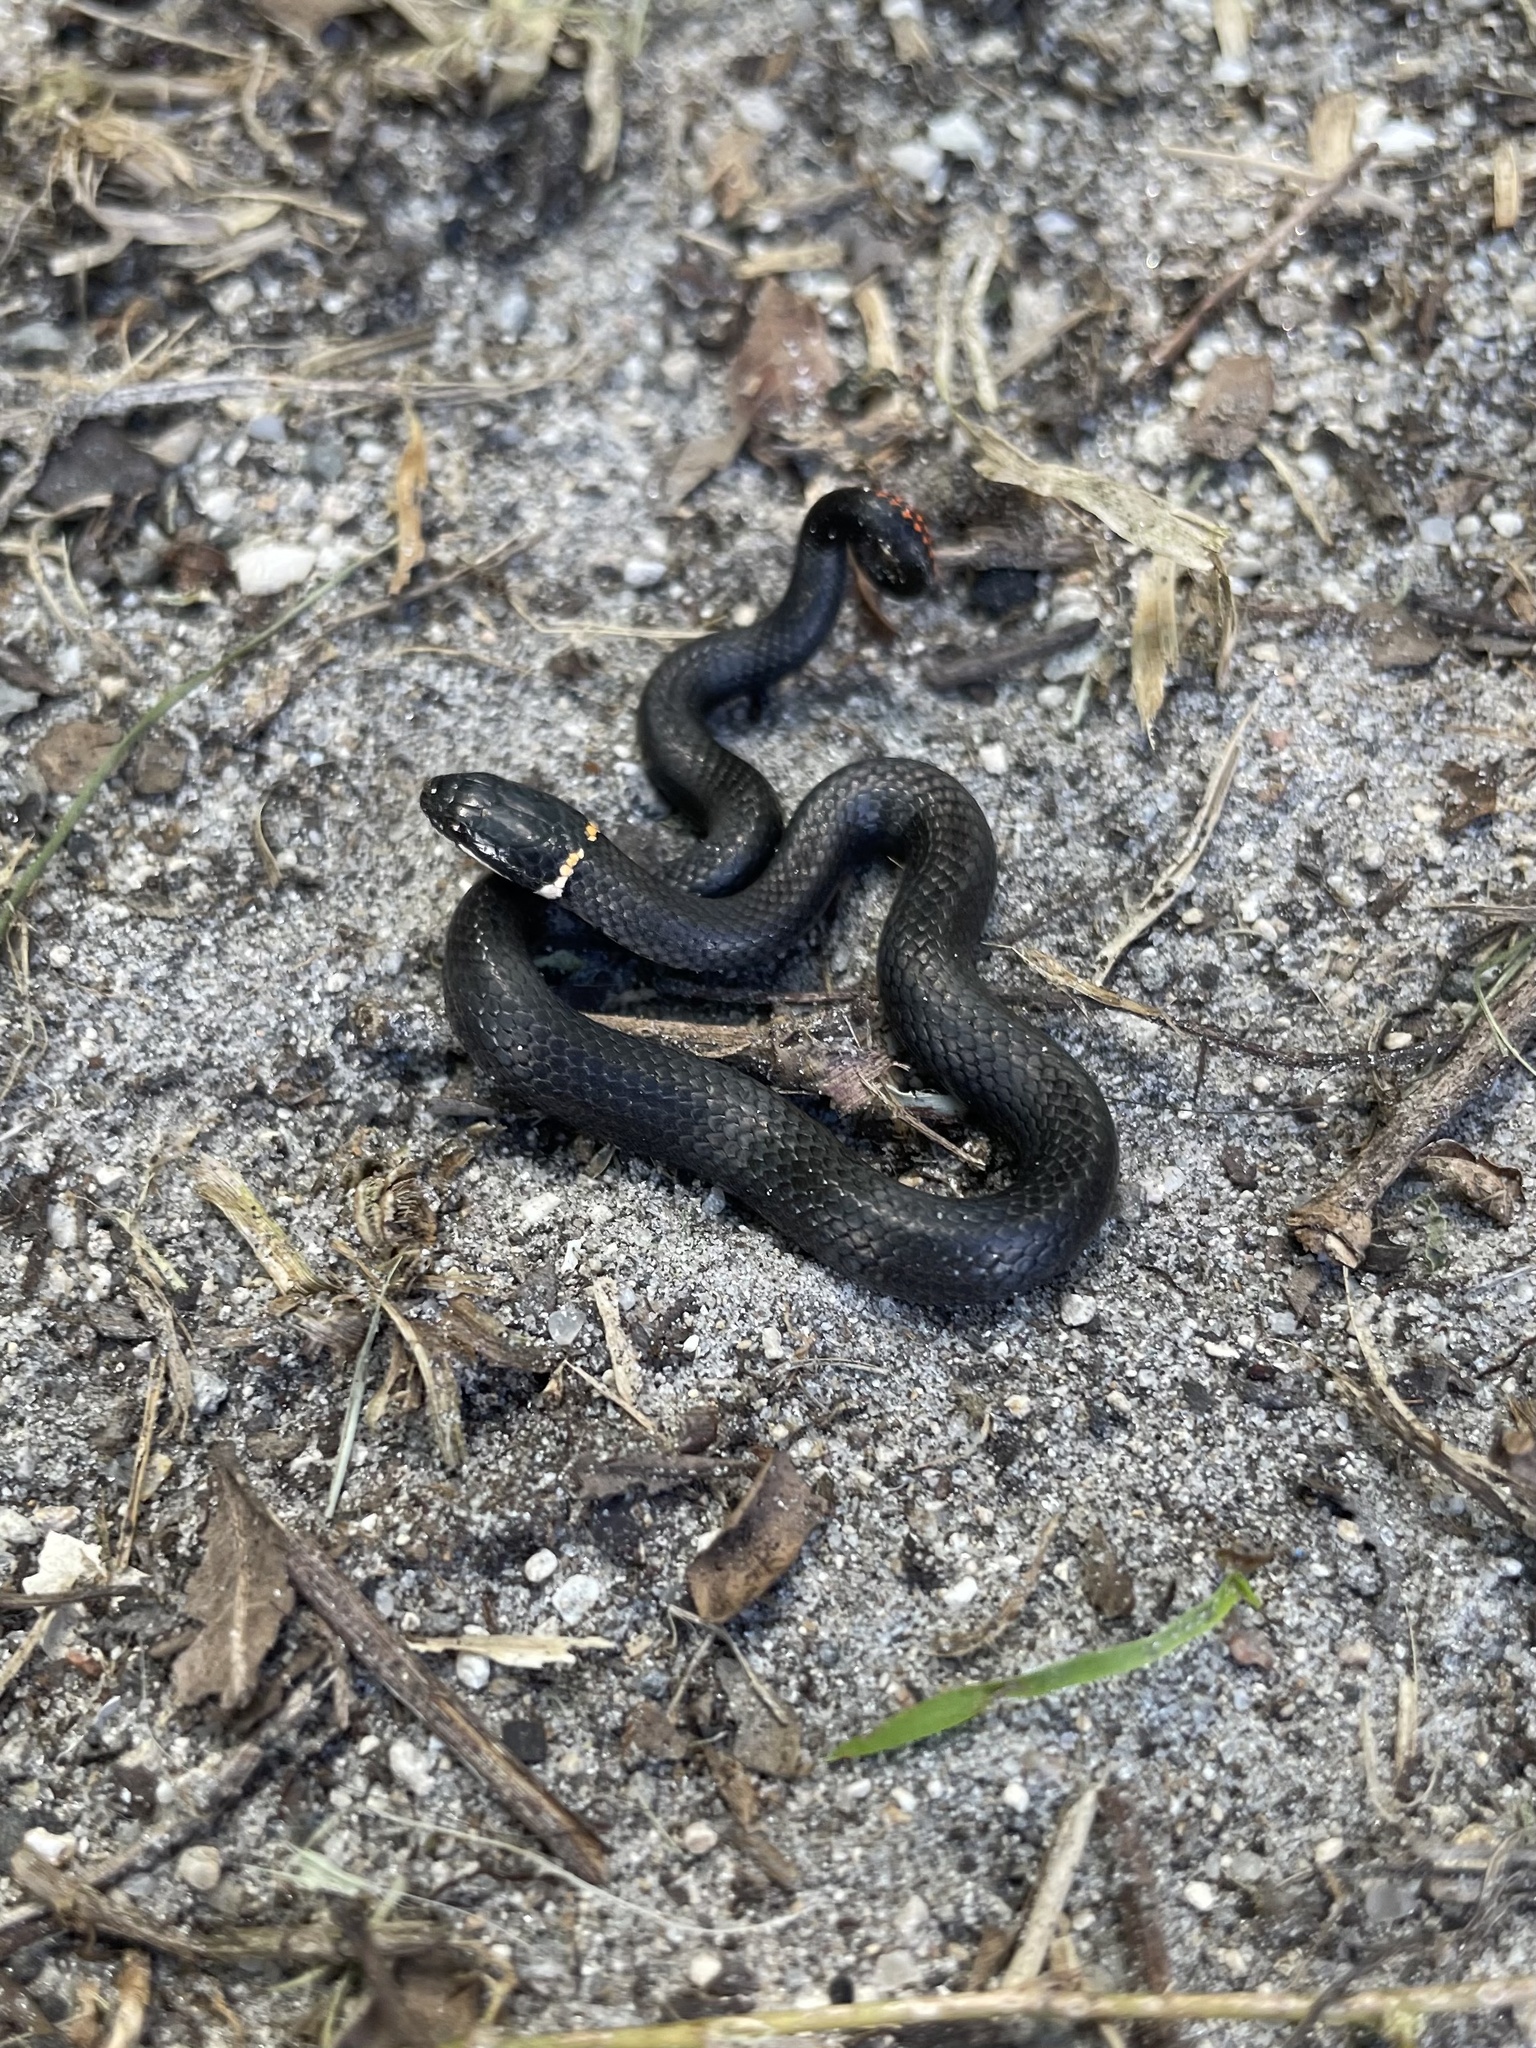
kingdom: Animalia
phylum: Chordata
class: Squamata
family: Colubridae
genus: Diadophis
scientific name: Diadophis punctatus
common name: Ringneck snake
